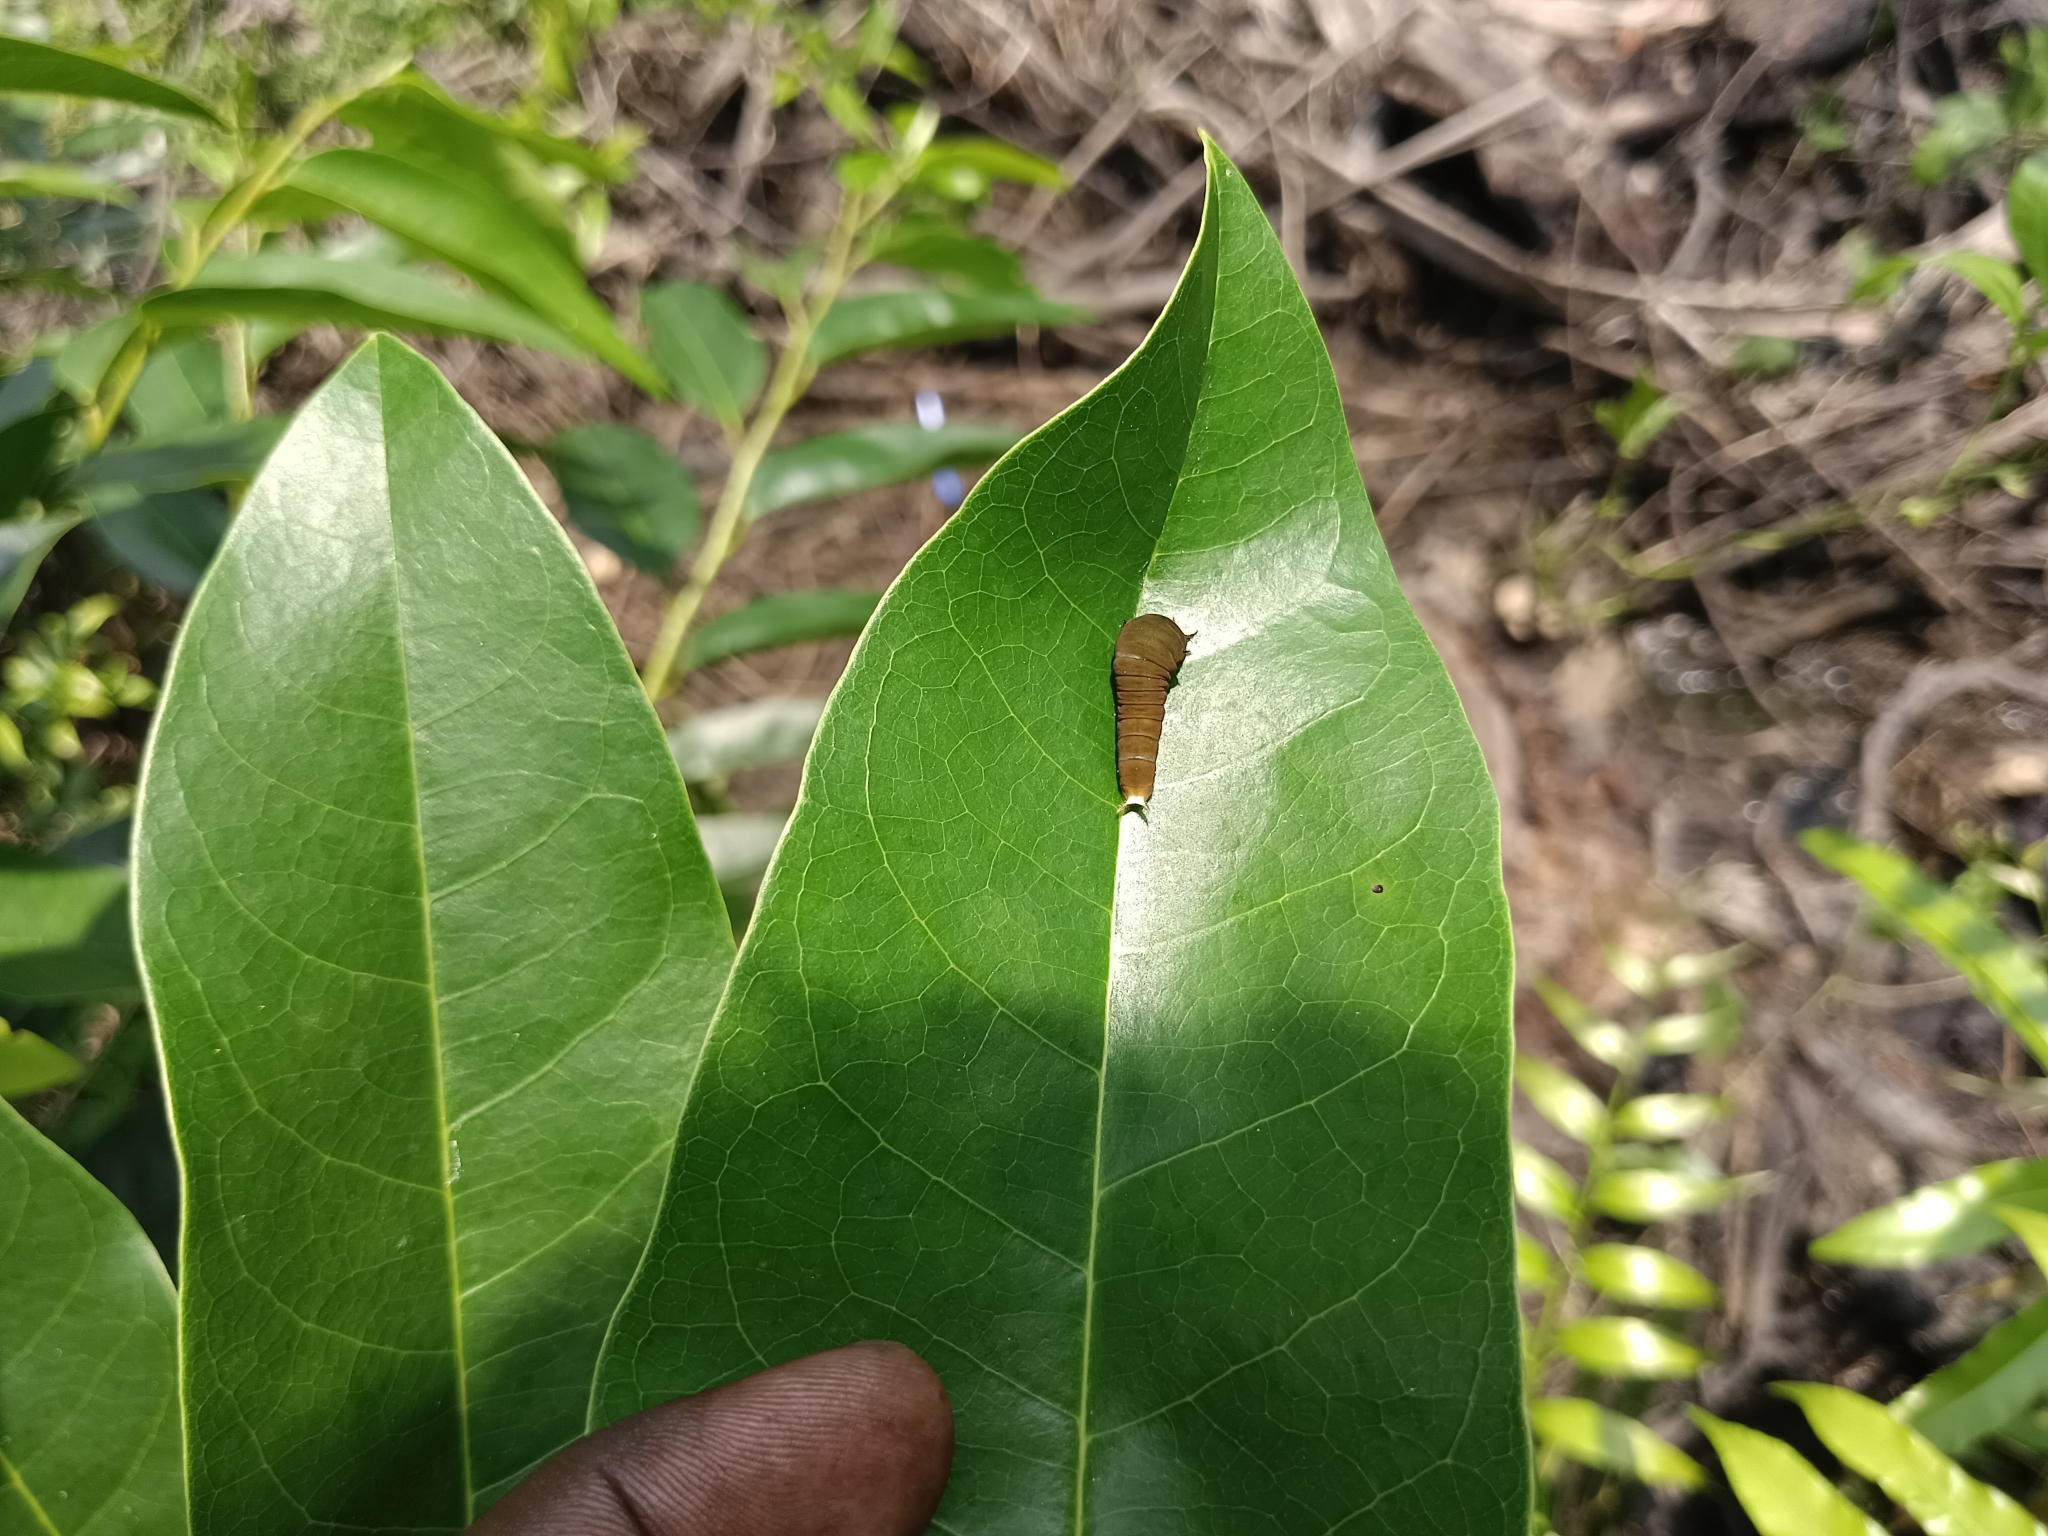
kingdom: Animalia
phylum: Arthropoda
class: Insecta
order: Lepidoptera
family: Papilionidae
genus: Graphium
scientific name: Graphium doson
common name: Common jay
